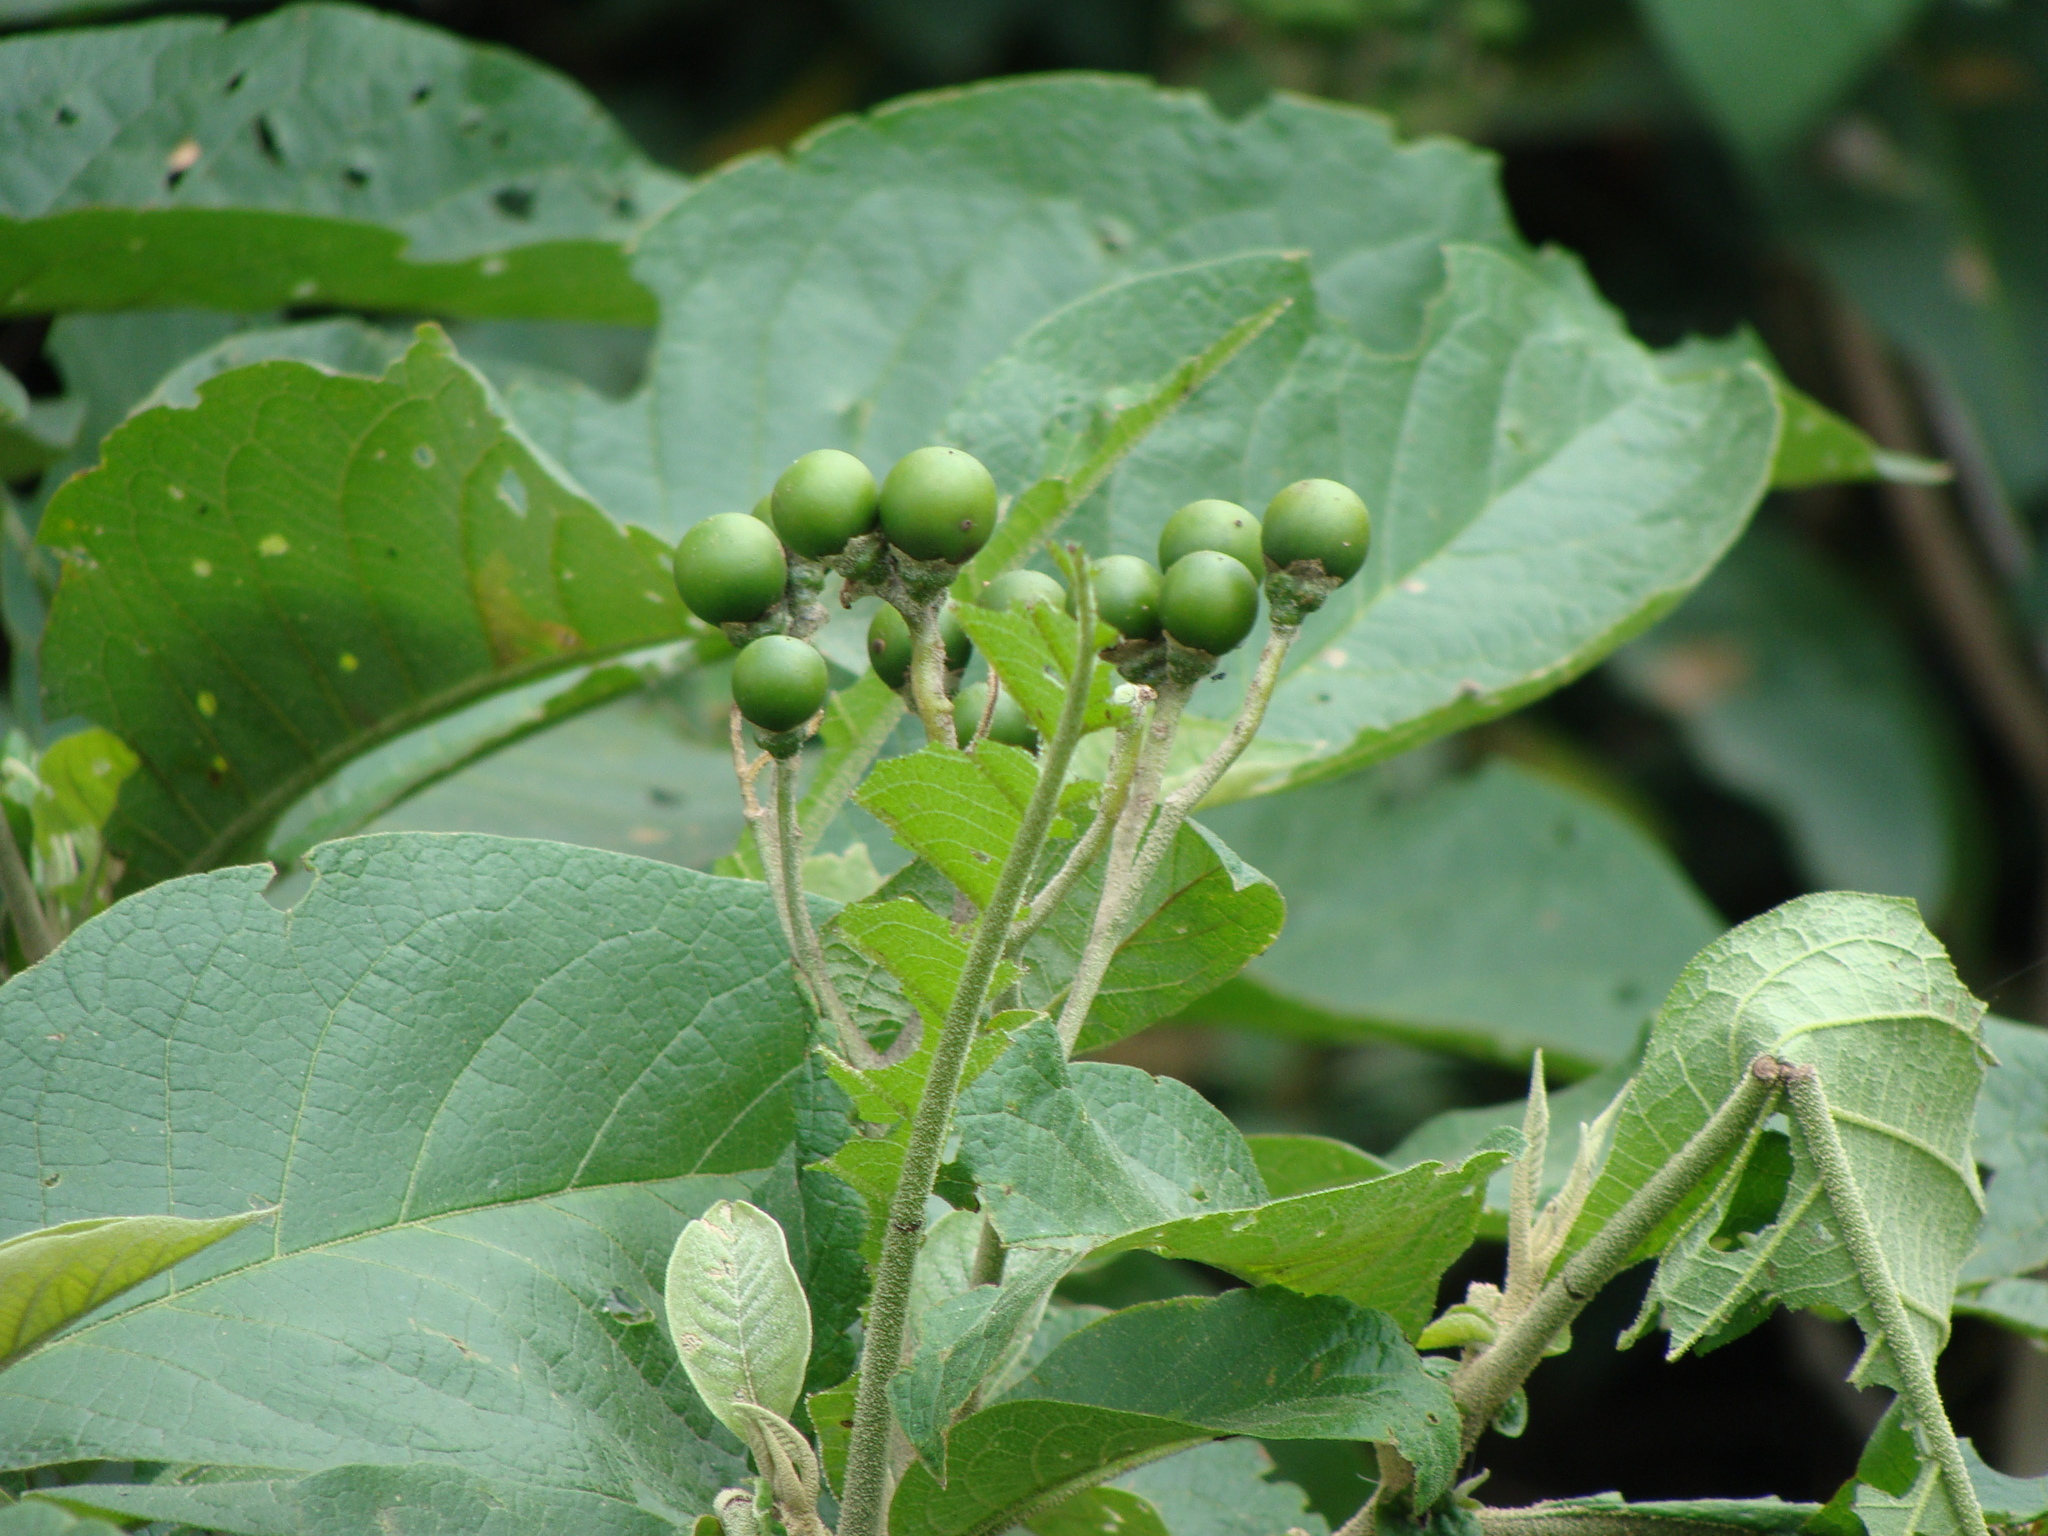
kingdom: Plantae
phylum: Tracheophyta
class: Magnoliopsida
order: Solanales
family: Solanaceae
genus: Solanum
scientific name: Solanum chiapasense
